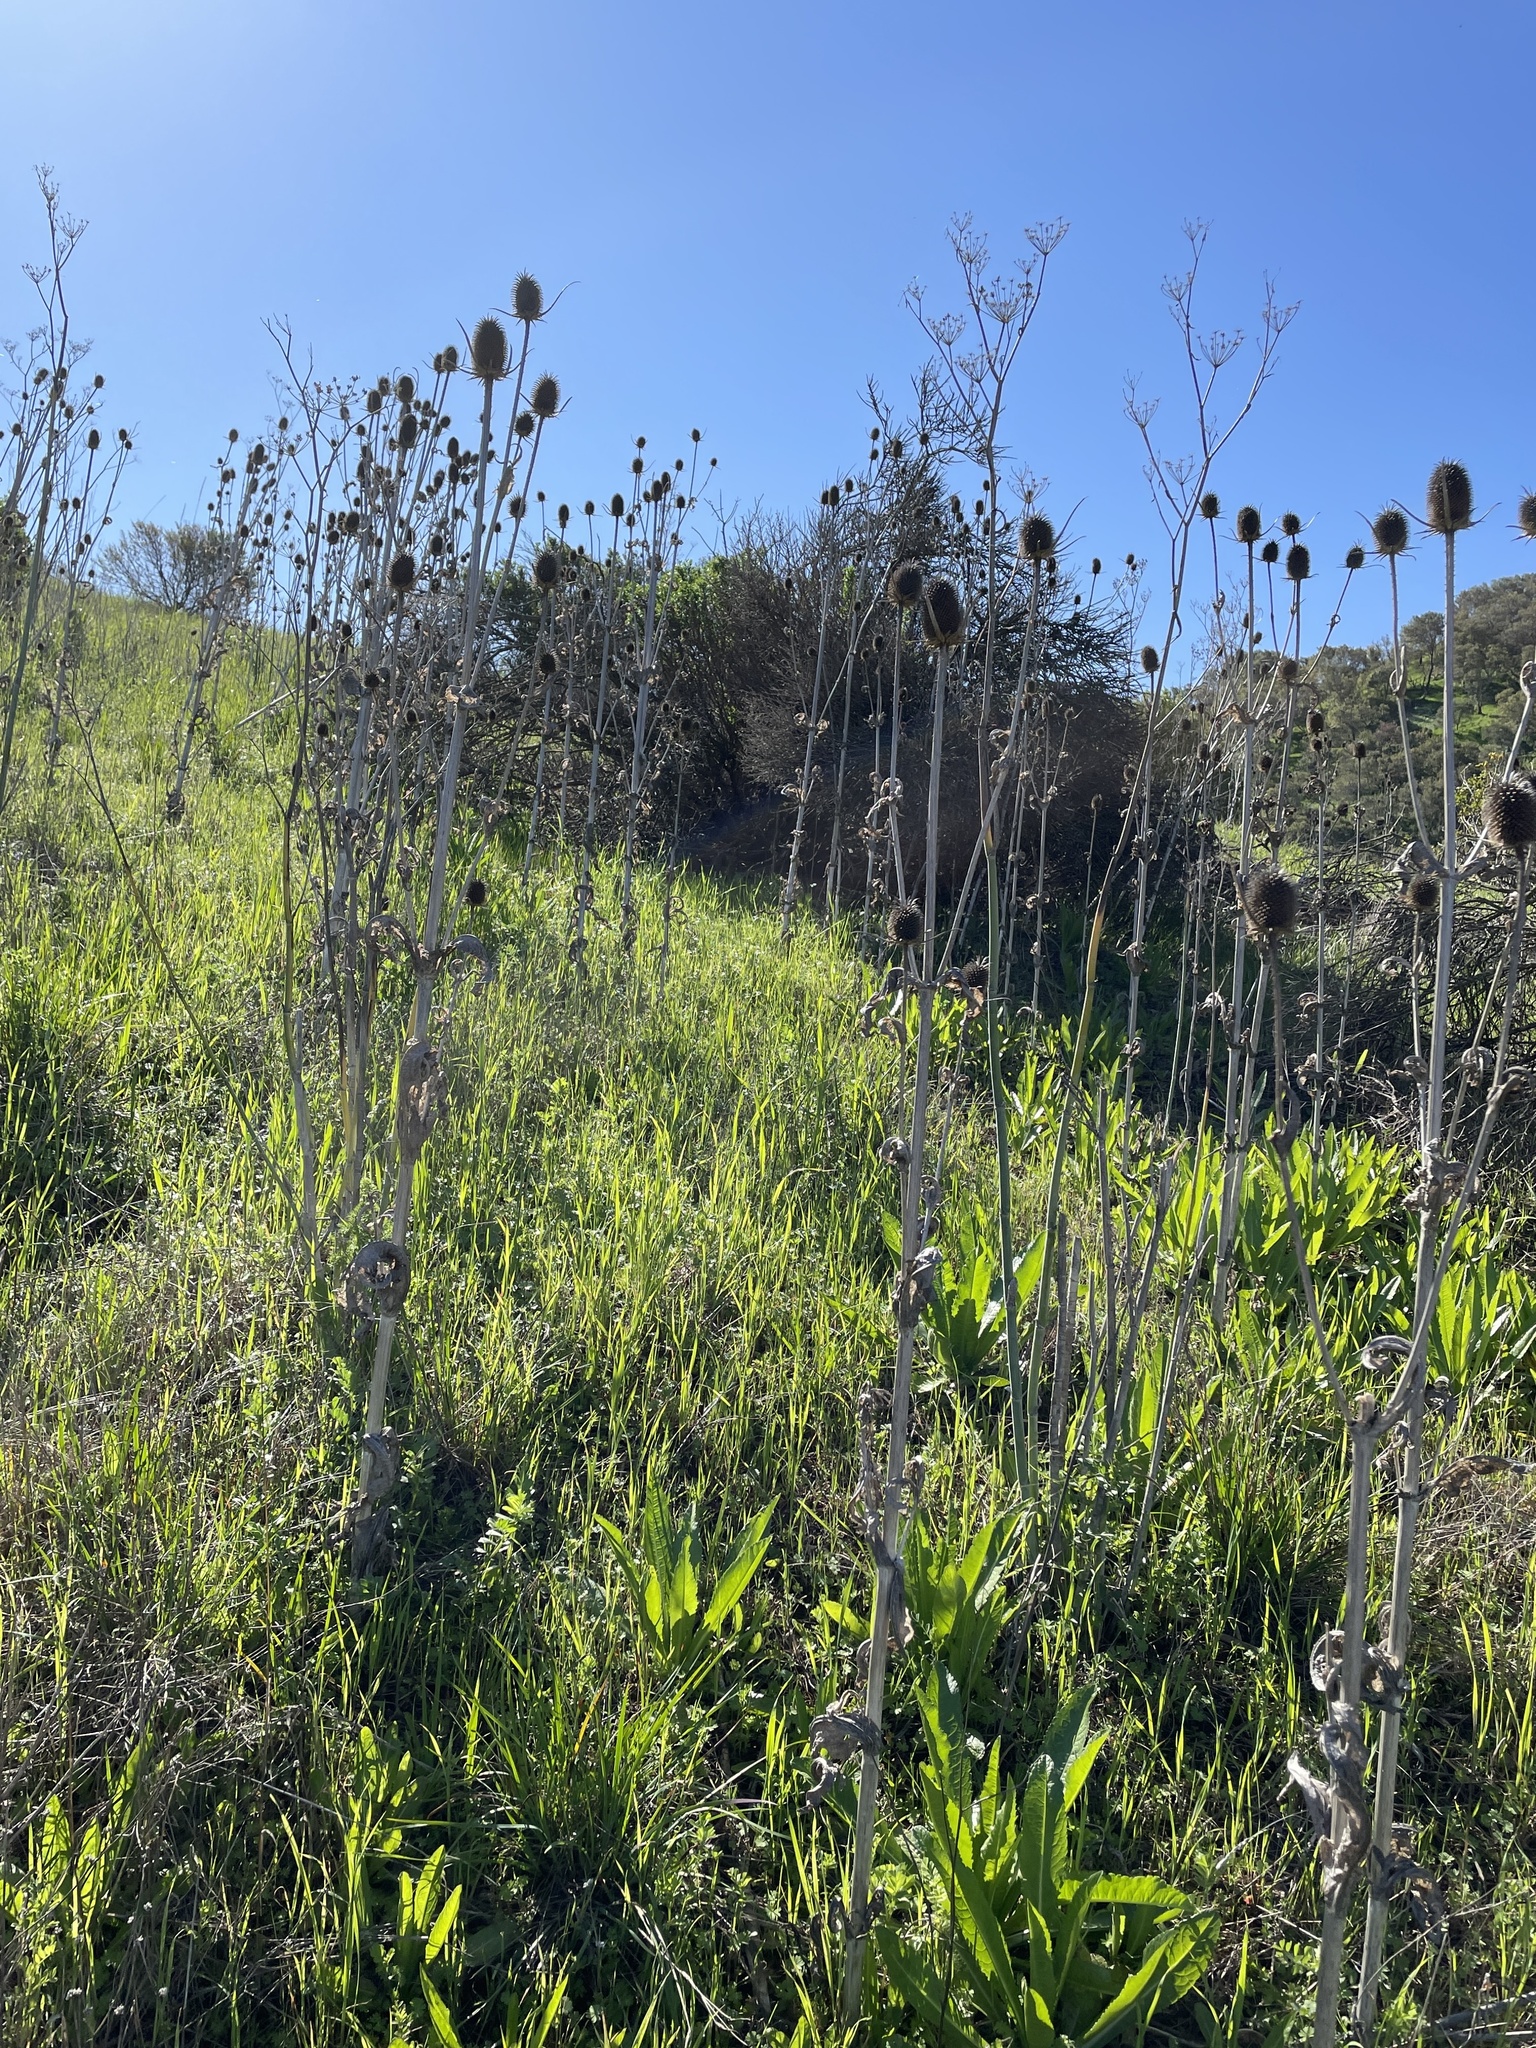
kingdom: Plantae
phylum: Tracheophyta
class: Magnoliopsida
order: Dipsacales
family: Caprifoliaceae
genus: Dipsacus
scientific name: Dipsacus sativus
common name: Fuller's teasel
